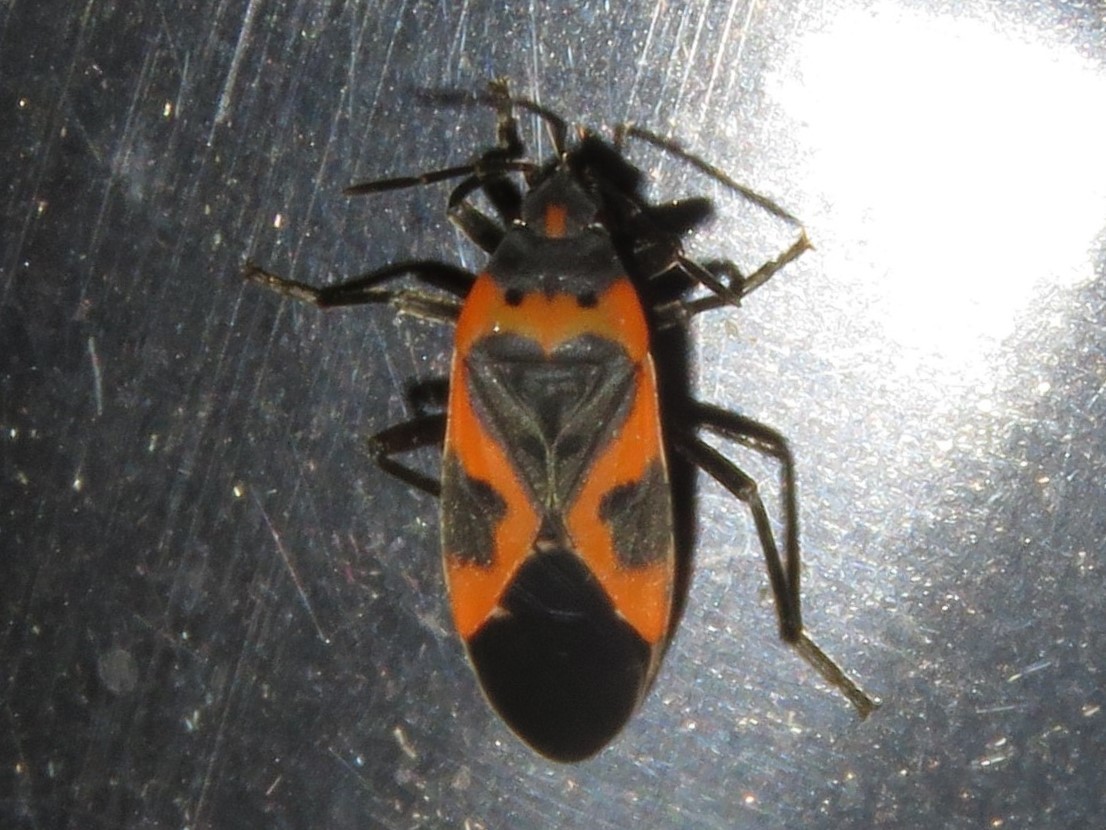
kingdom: Animalia
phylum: Arthropoda
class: Insecta
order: Hemiptera
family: Lygaeidae
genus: Lygaeus
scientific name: Lygaeus kalmii
